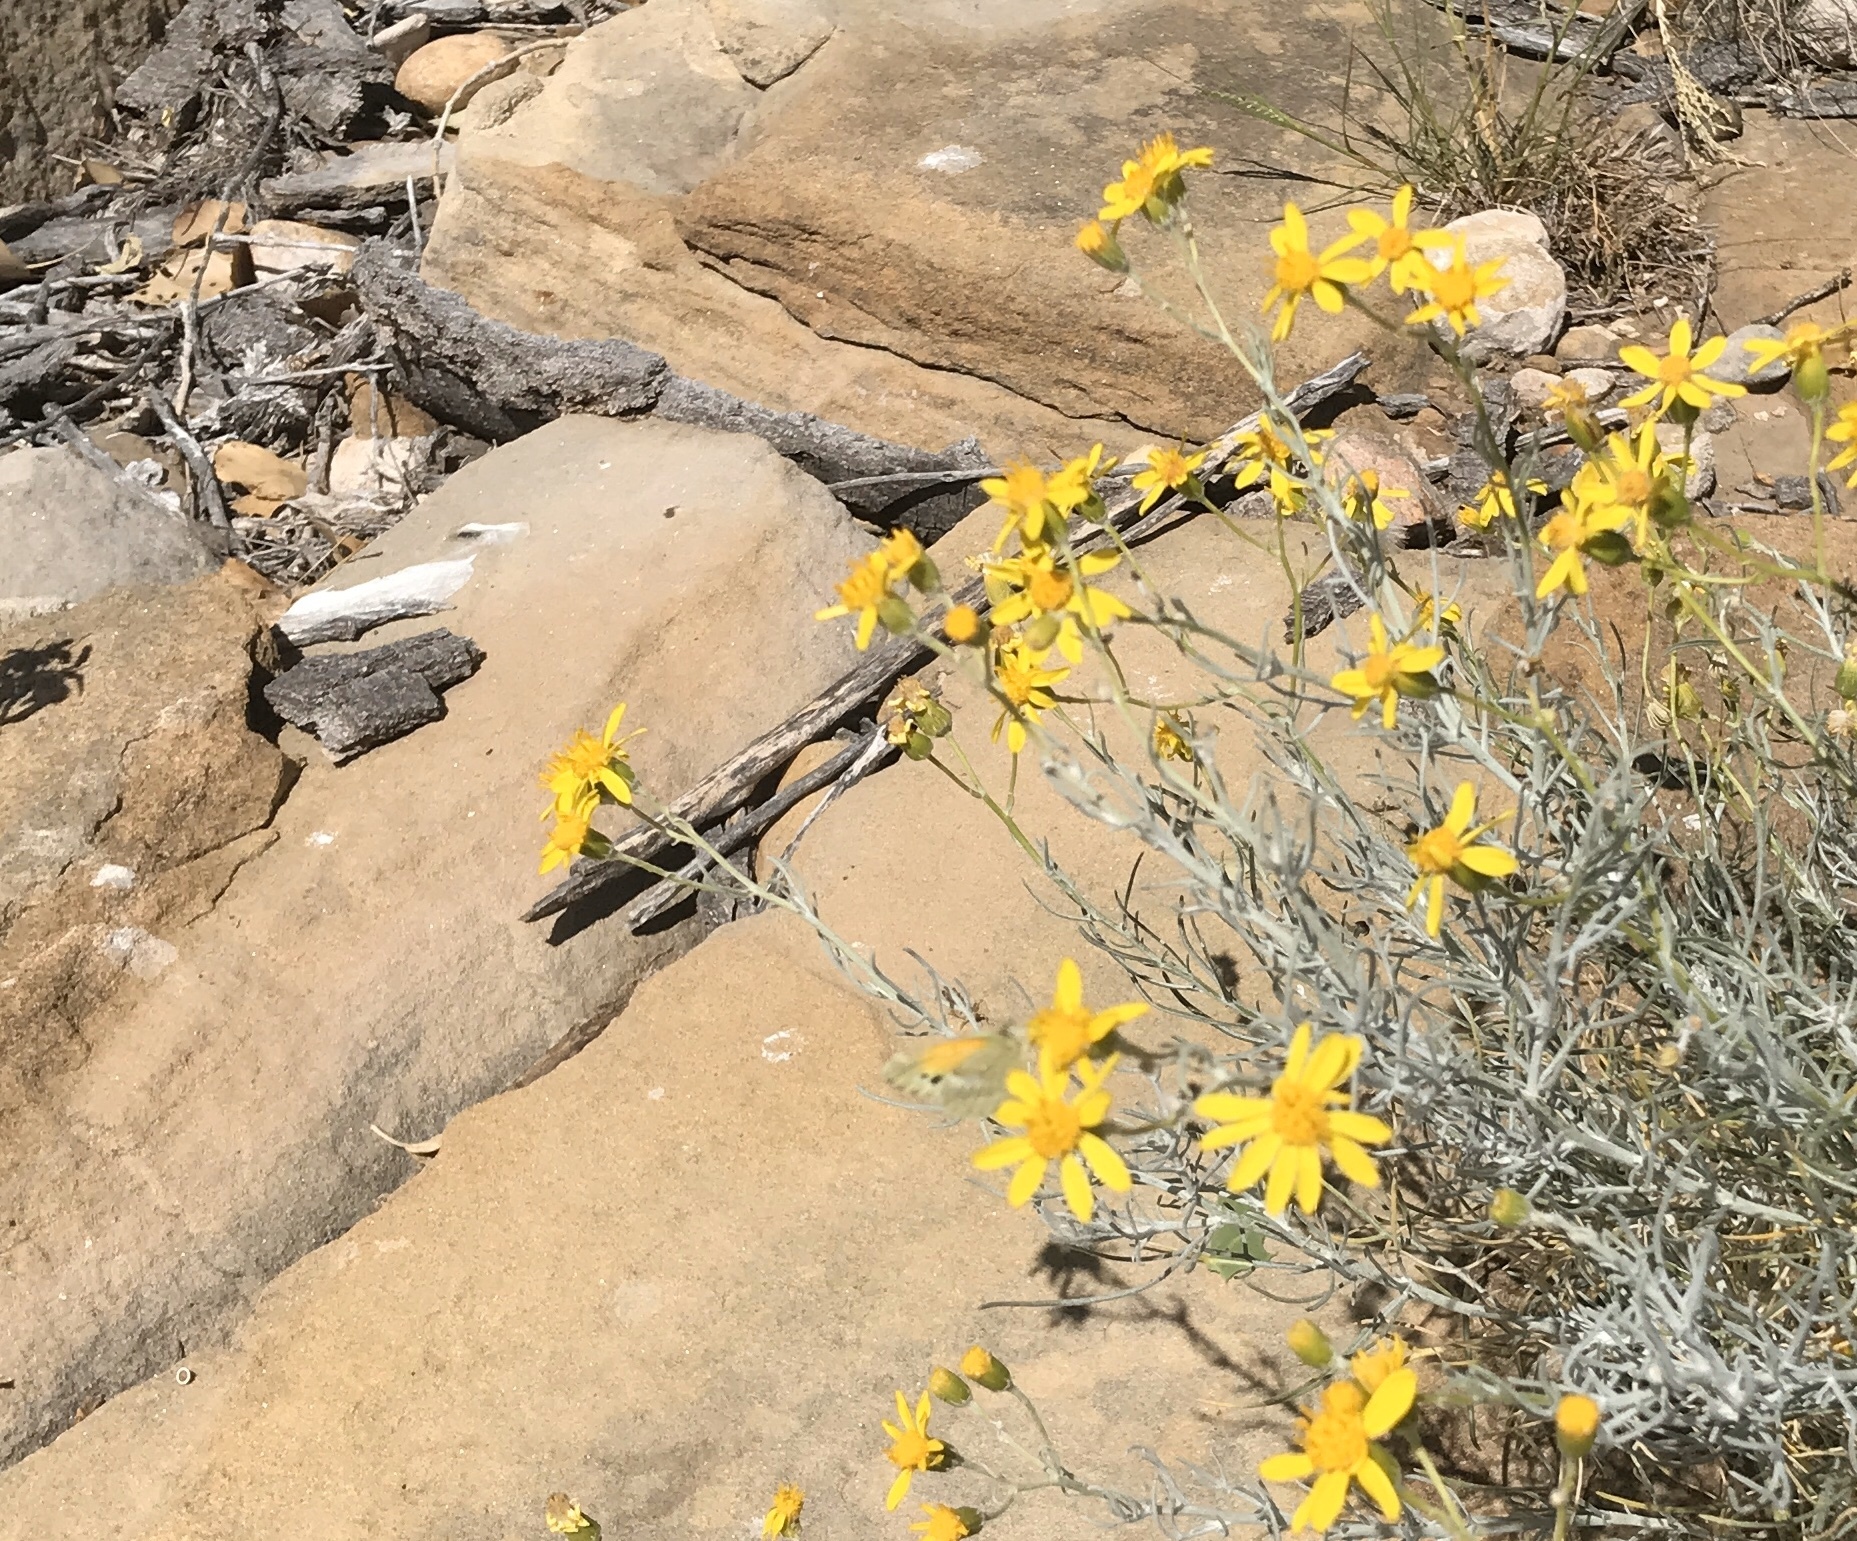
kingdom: Animalia
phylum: Arthropoda
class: Insecta
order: Lepidoptera
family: Pieridae
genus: Nathalis
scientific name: Nathalis iole
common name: Dainty sulphur
